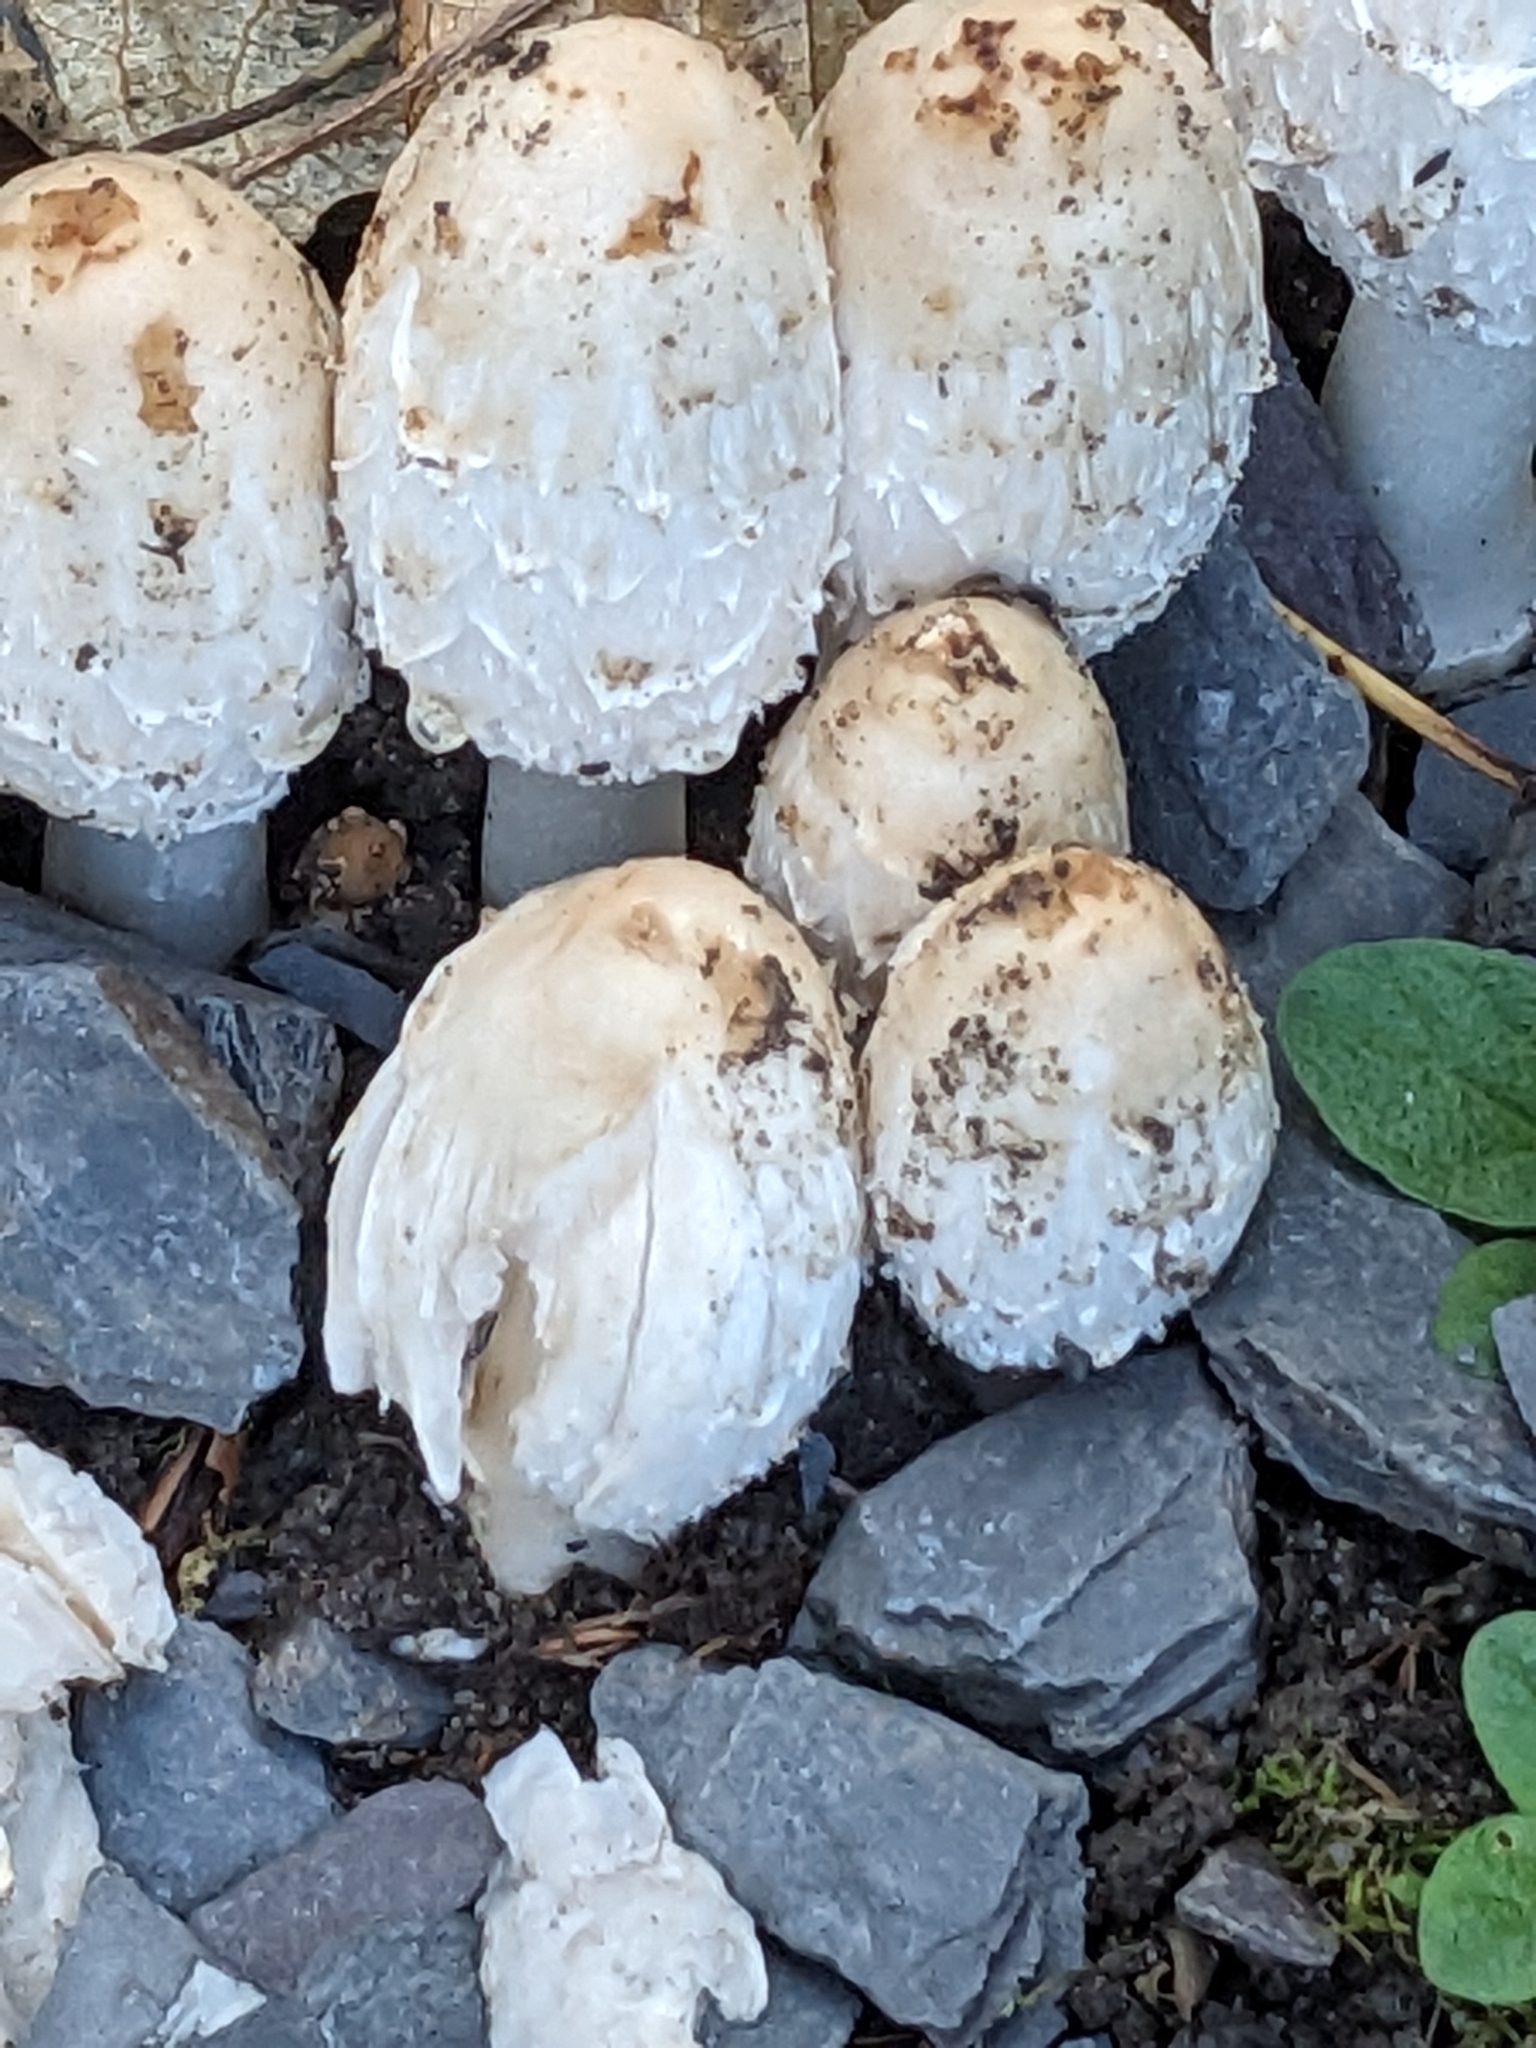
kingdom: Fungi
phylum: Basidiomycota
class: Agaricomycetes
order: Agaricales
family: Agaricaceae
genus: Coprinus
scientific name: Coprinus comatus
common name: Lawyer's wig
